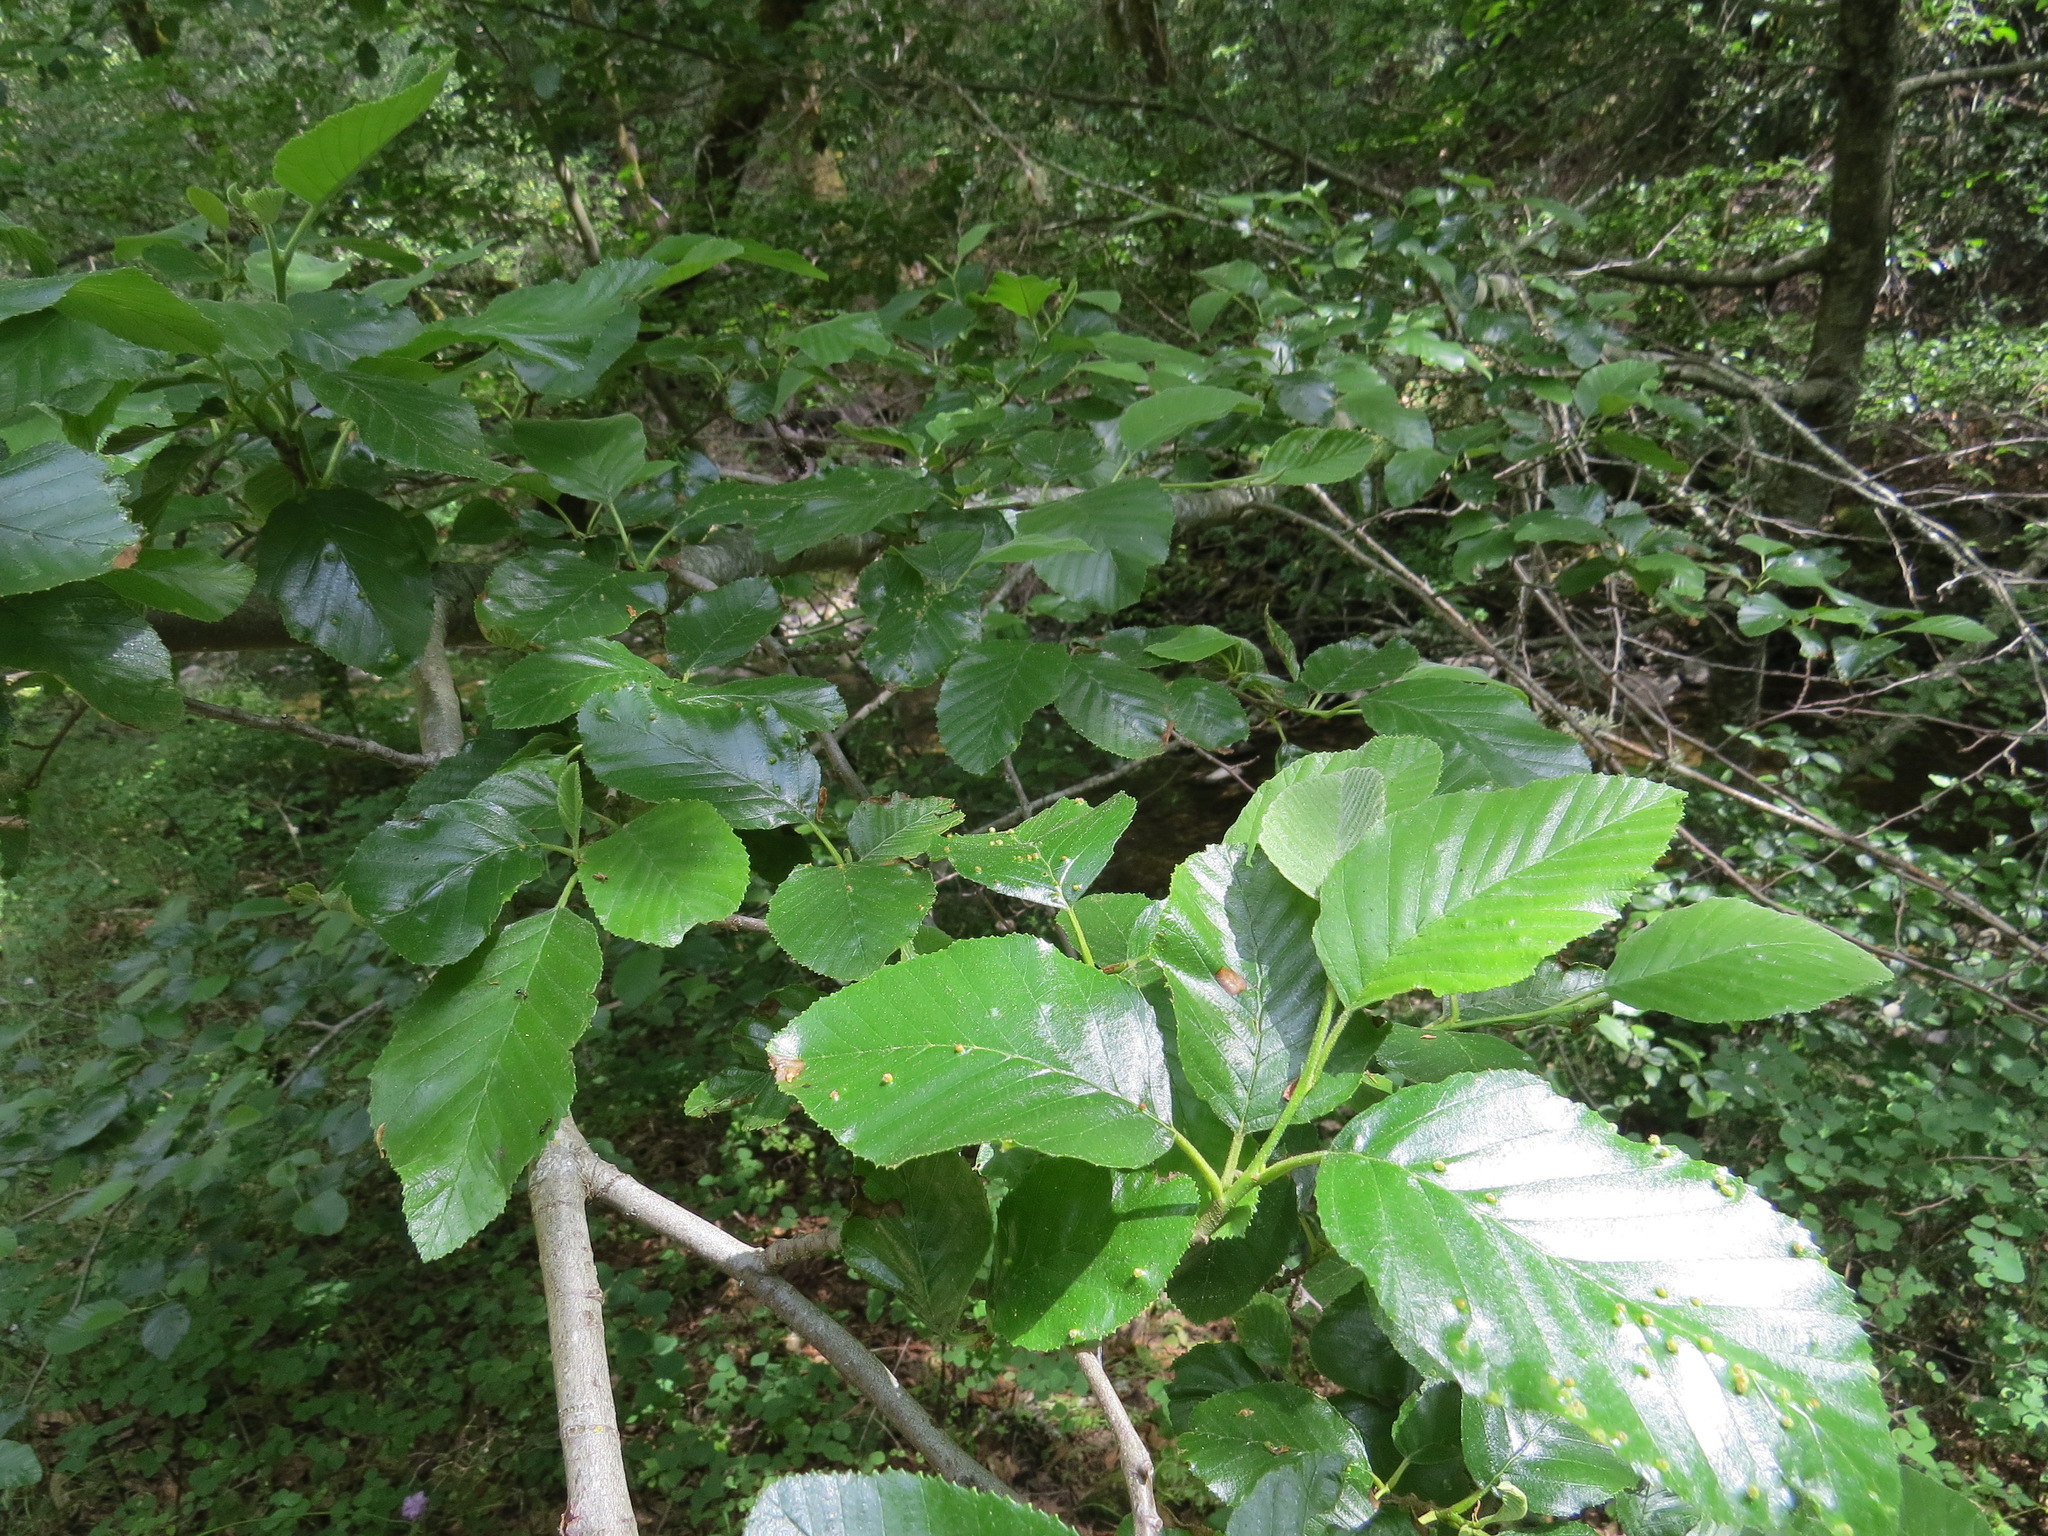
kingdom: Animalia
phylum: Arthropoda
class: Arachnida
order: Trombidiformes
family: Eriophyidae
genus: Eriophyes
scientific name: Eriophyes laevis
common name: Alder leaf gall mite
